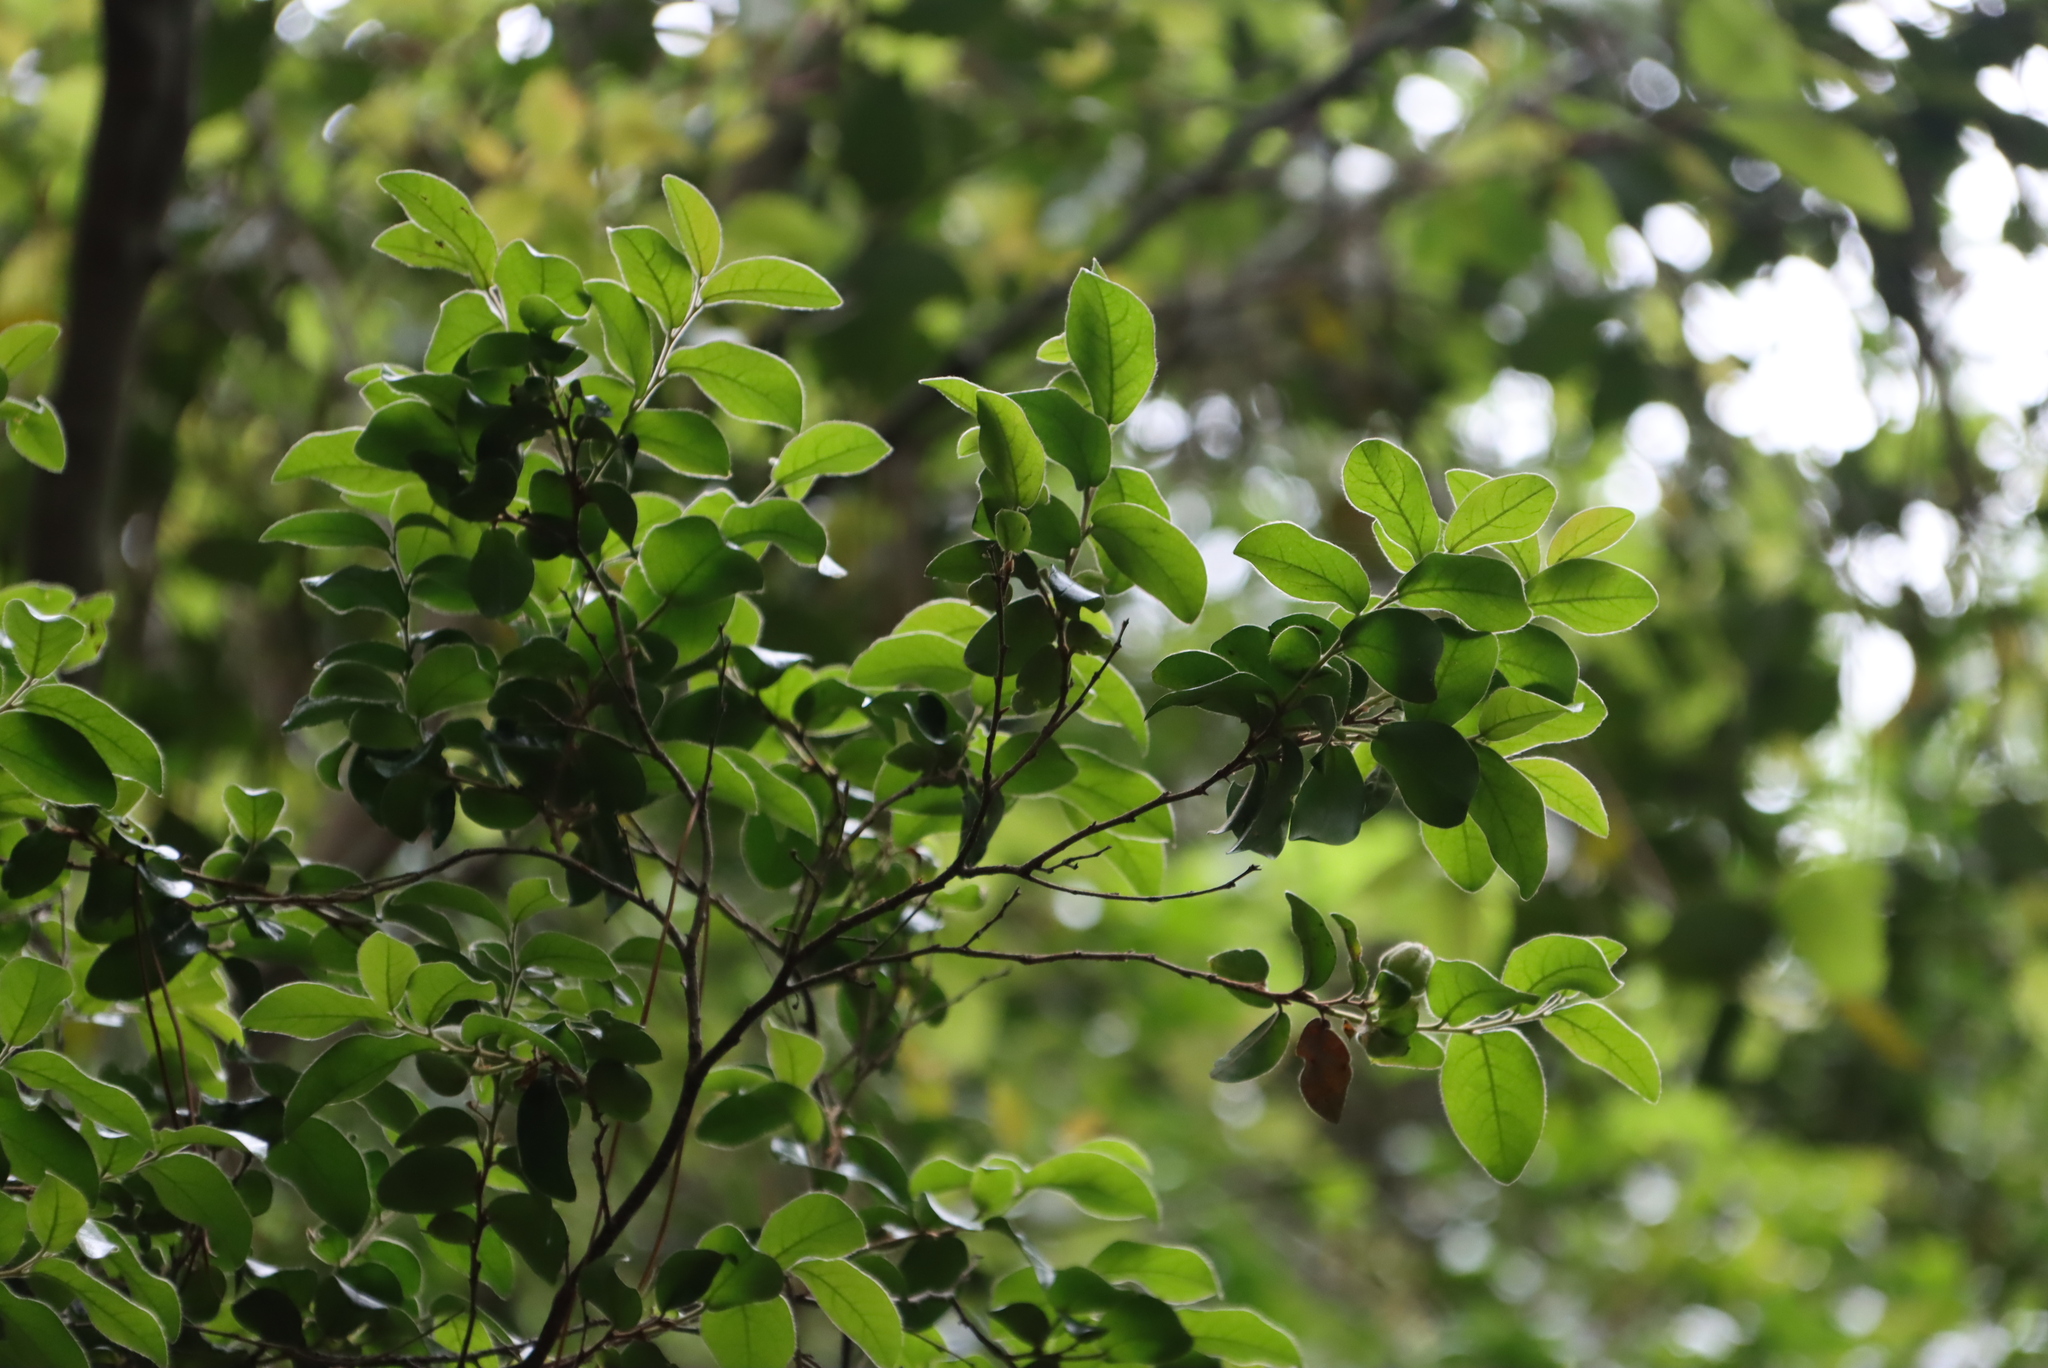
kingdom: Plantae
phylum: Tracheophyta
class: Magnoliopsida
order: Ericales
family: Ebenaceae
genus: Diospyros
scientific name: Diospyros whyteana
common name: Bladder-nut
